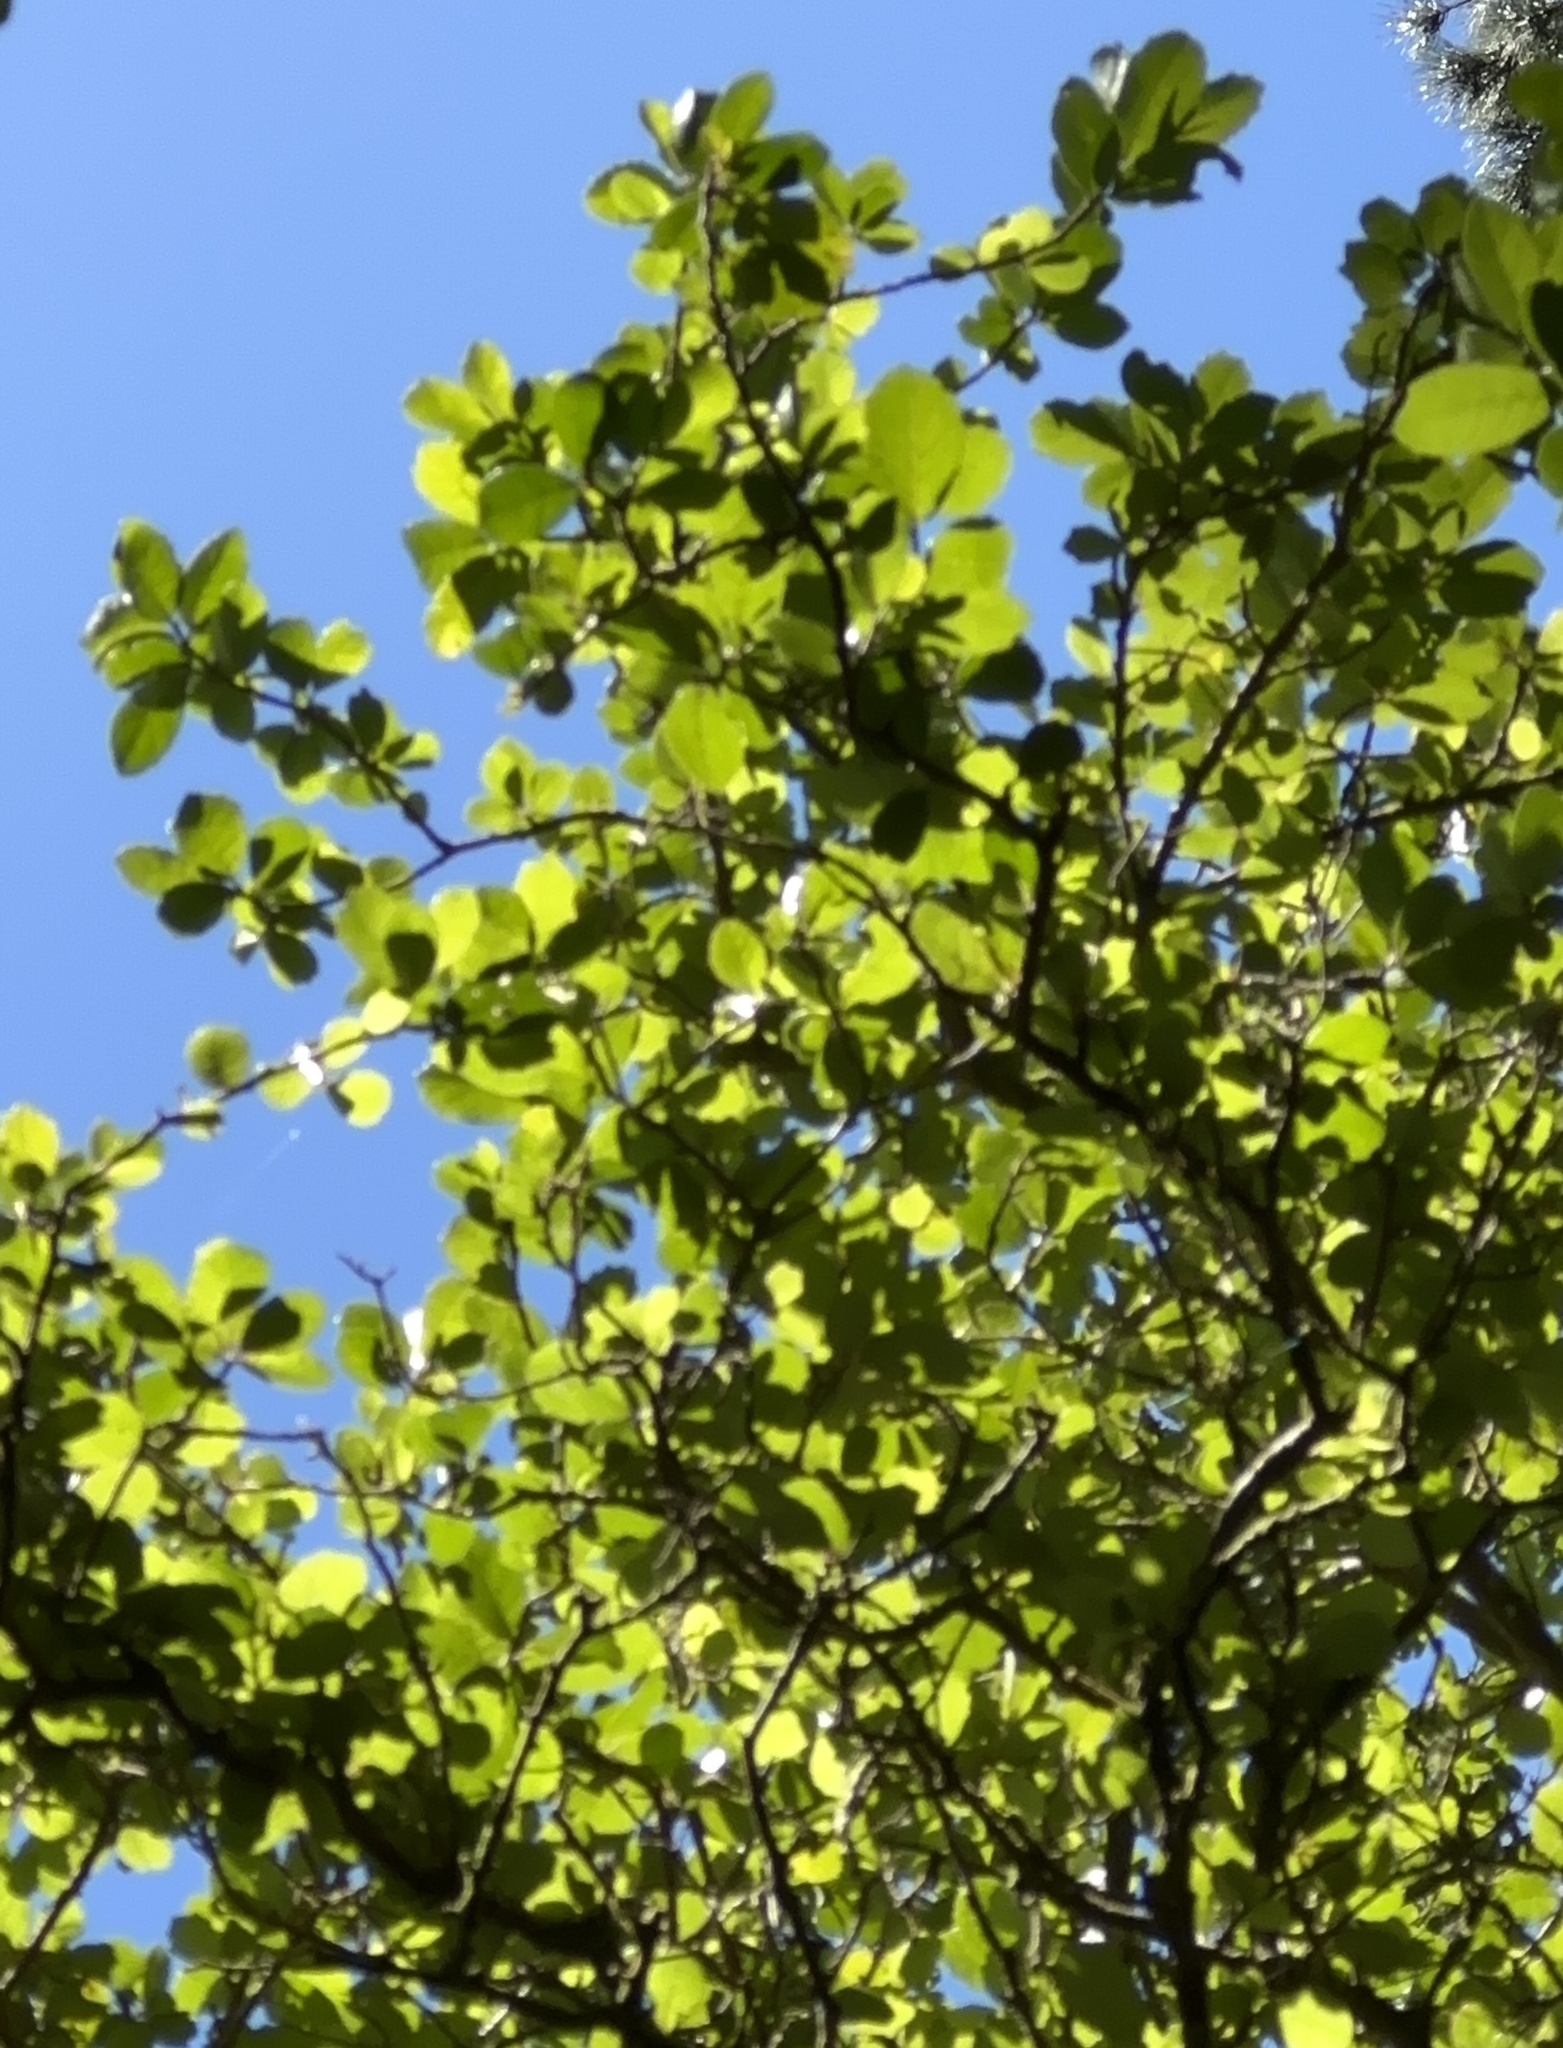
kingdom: Plantae
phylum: Tracheophyta
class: Magnoliopsida
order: Apiales
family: Pennantiaceae
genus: Pennantia
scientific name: Pennantia corymbosa
